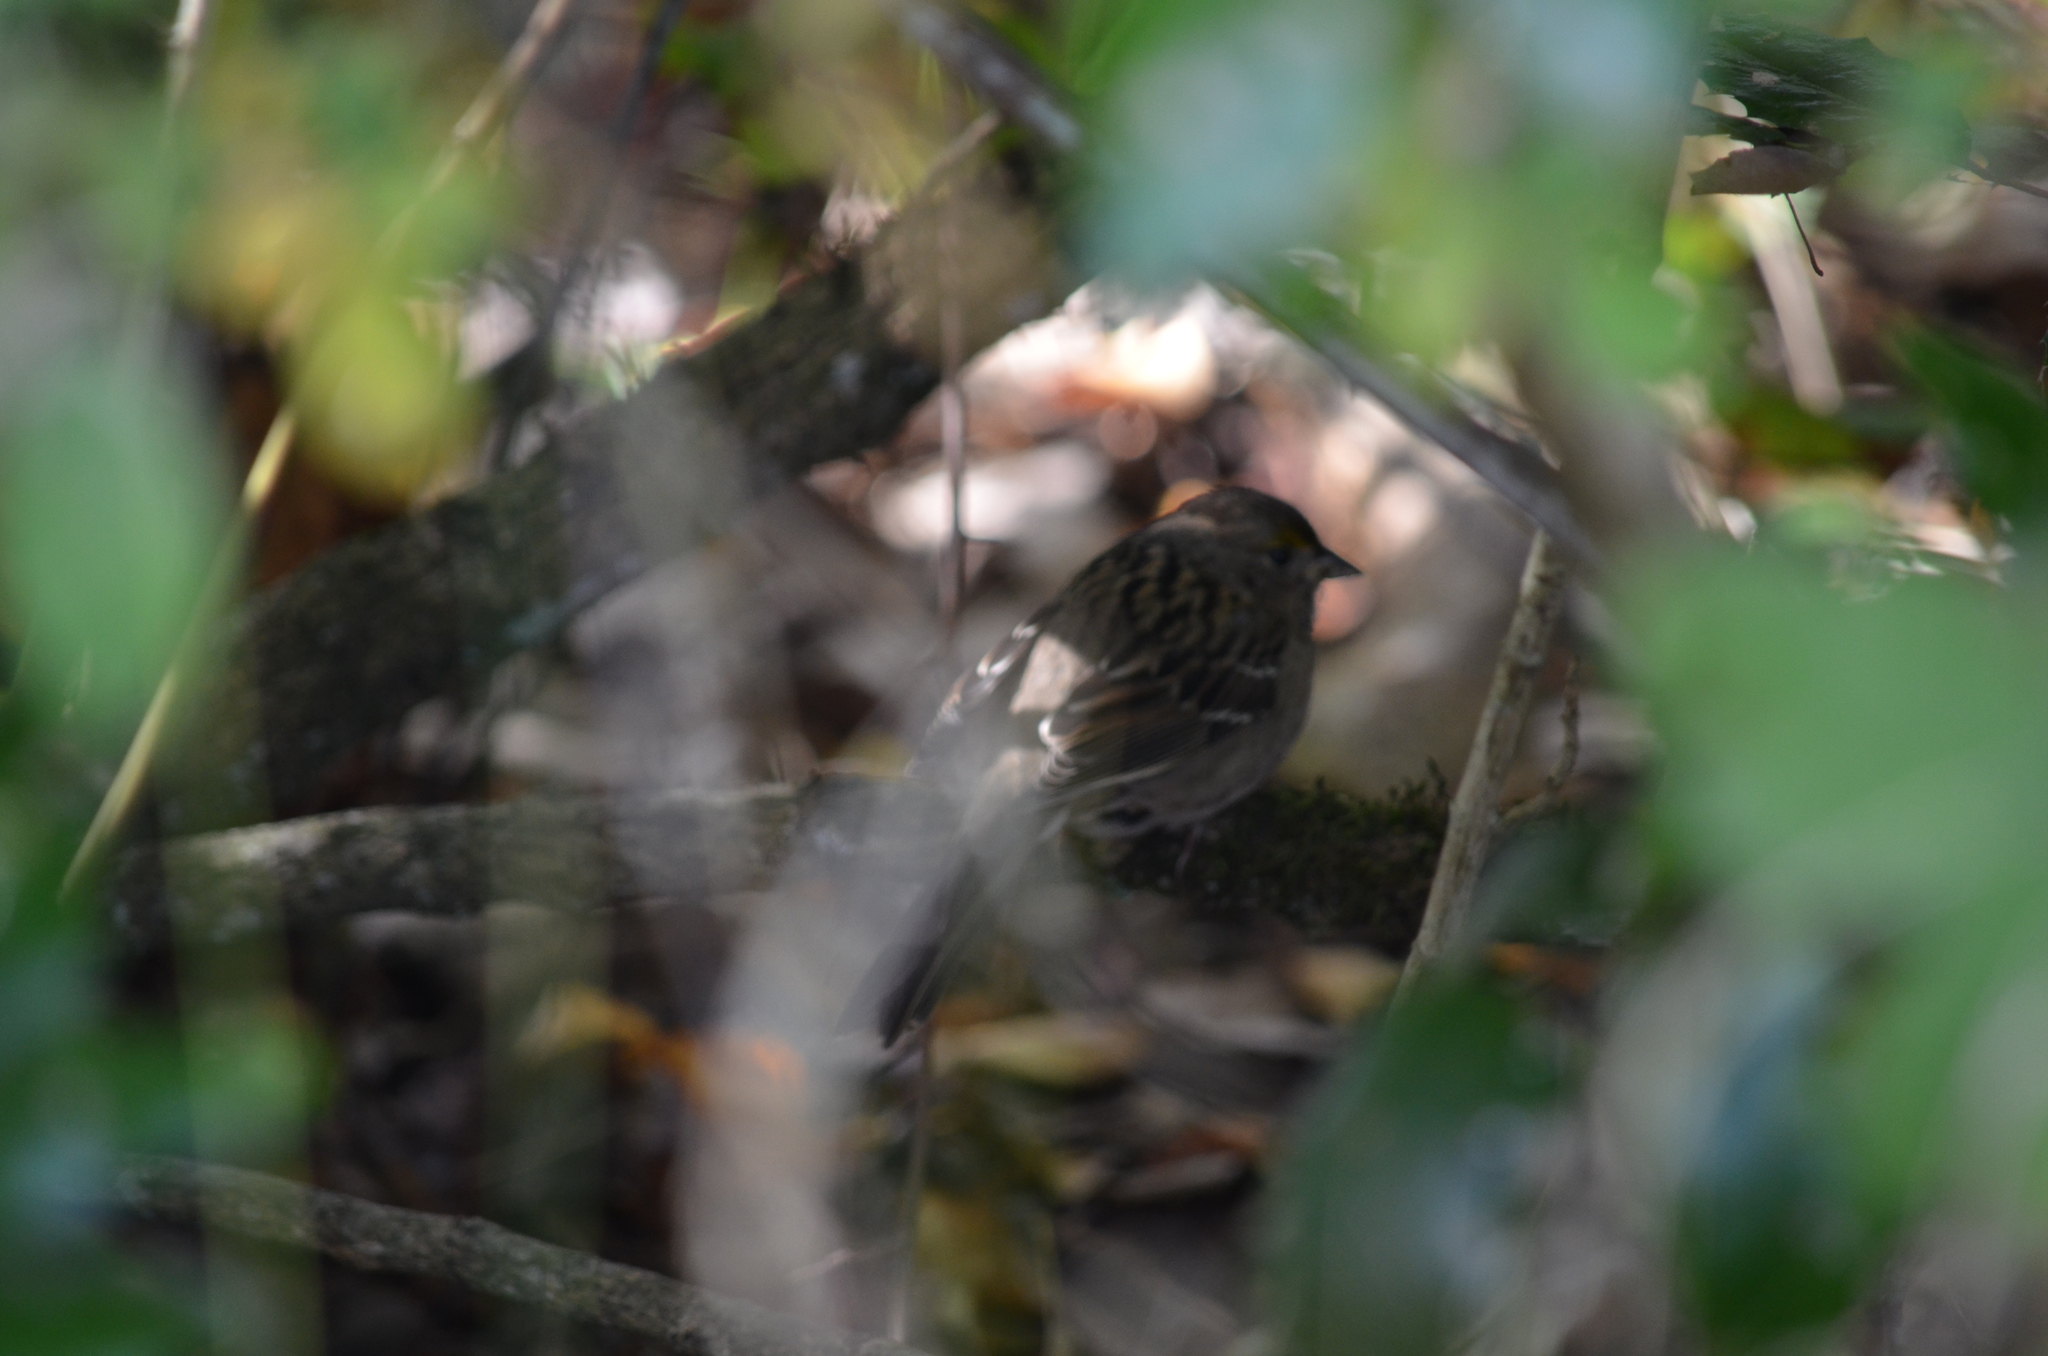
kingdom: Animalia
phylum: Chordata
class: Aves
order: Passeriformes
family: Passerellidae
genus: Zonotrichia
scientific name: Zonotrichia atricapilla
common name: Golden-crowned sparrow
